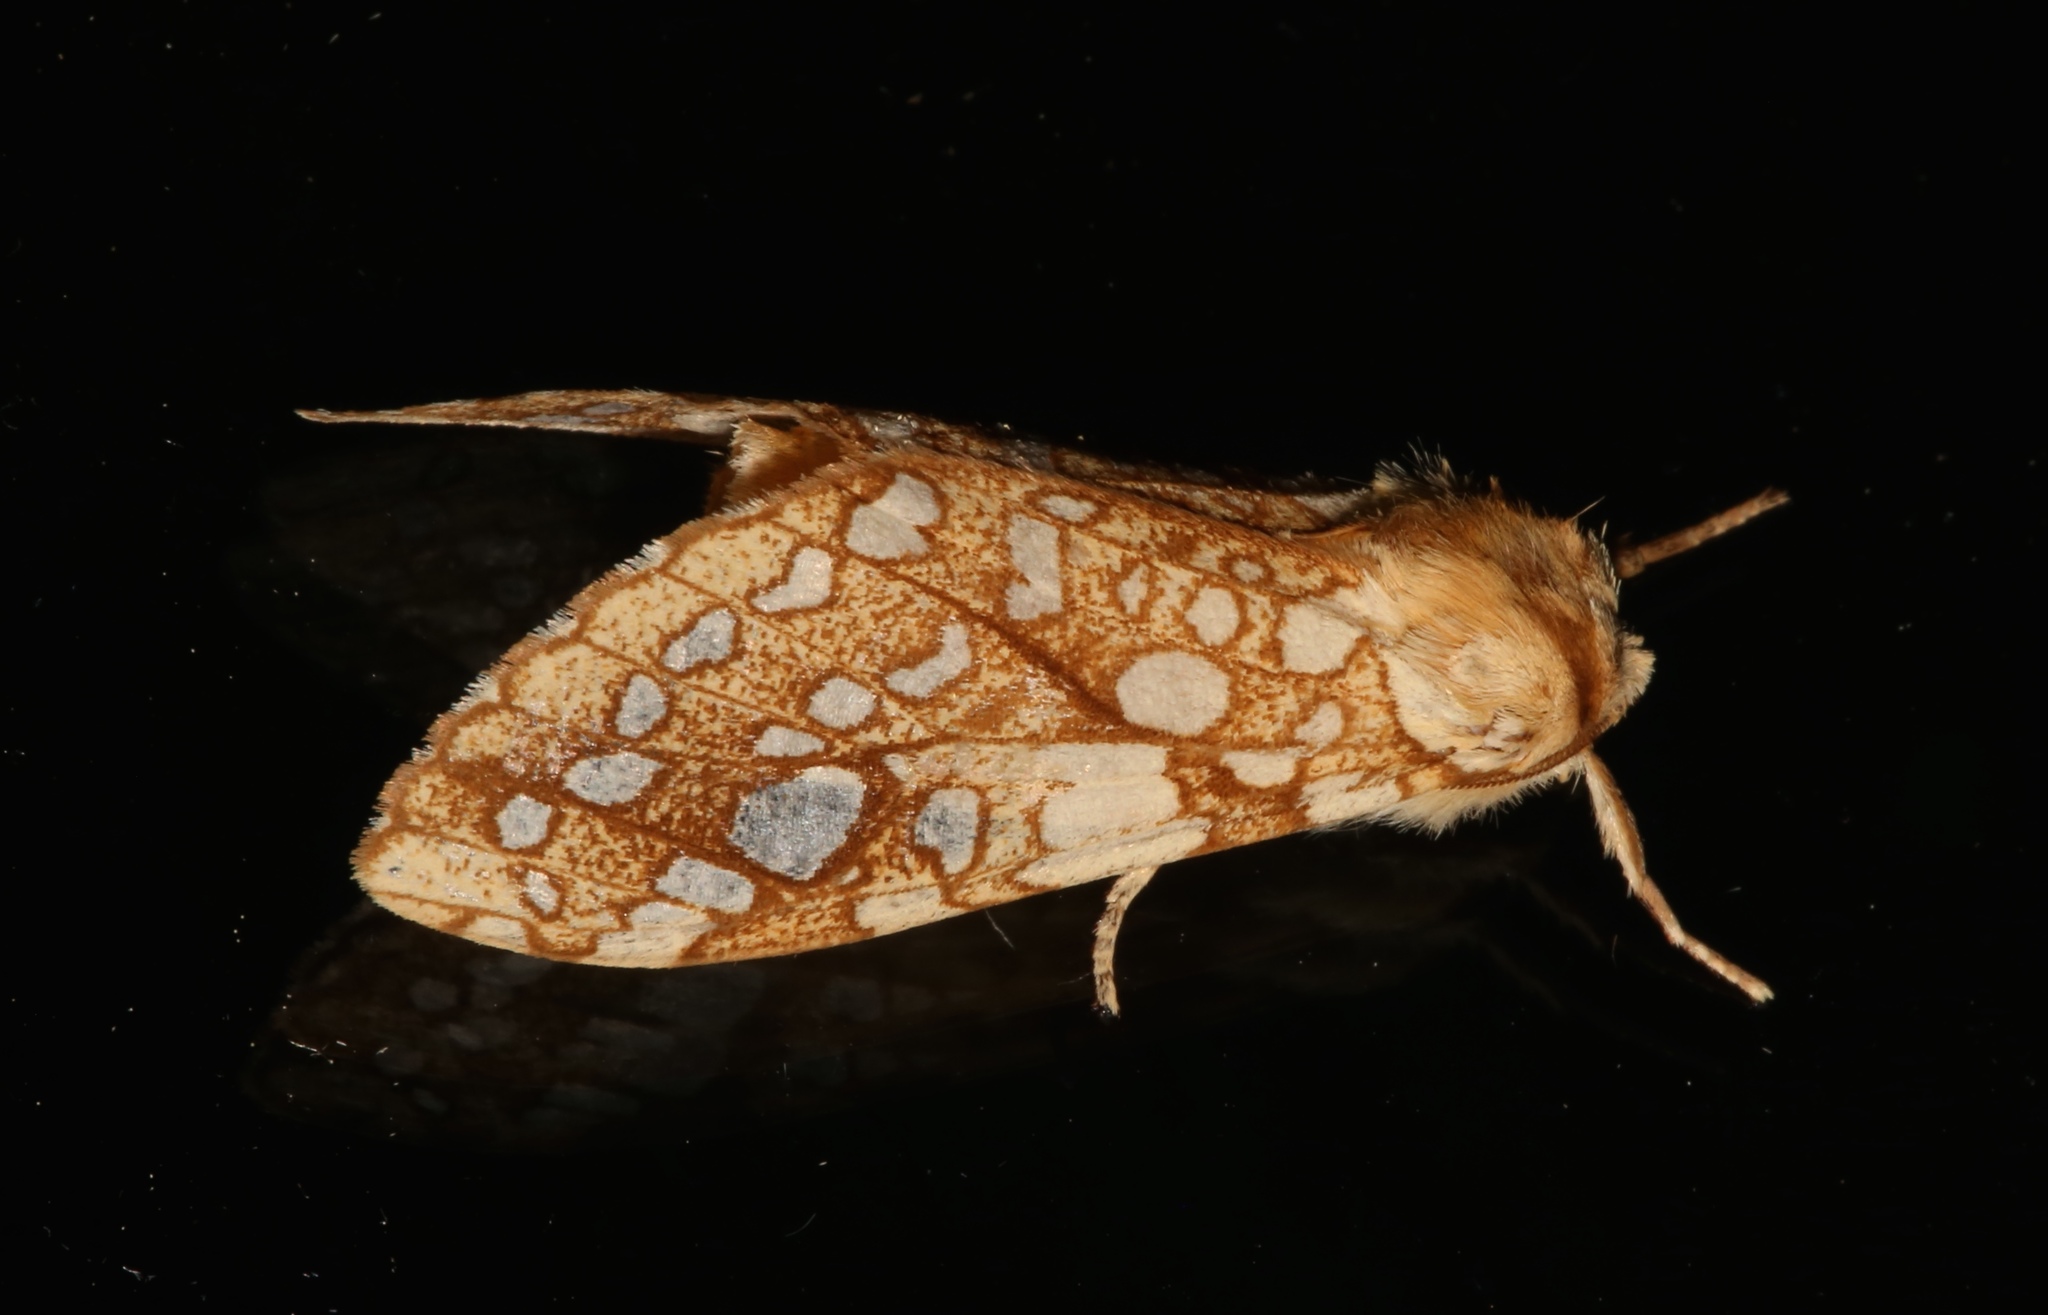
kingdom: Animalia
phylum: Arthropoda
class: Insecta
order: Lepidoptera
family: Erebidae
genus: Lophocampa
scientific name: Lophocampa caryae
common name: Hickory tussock moth
